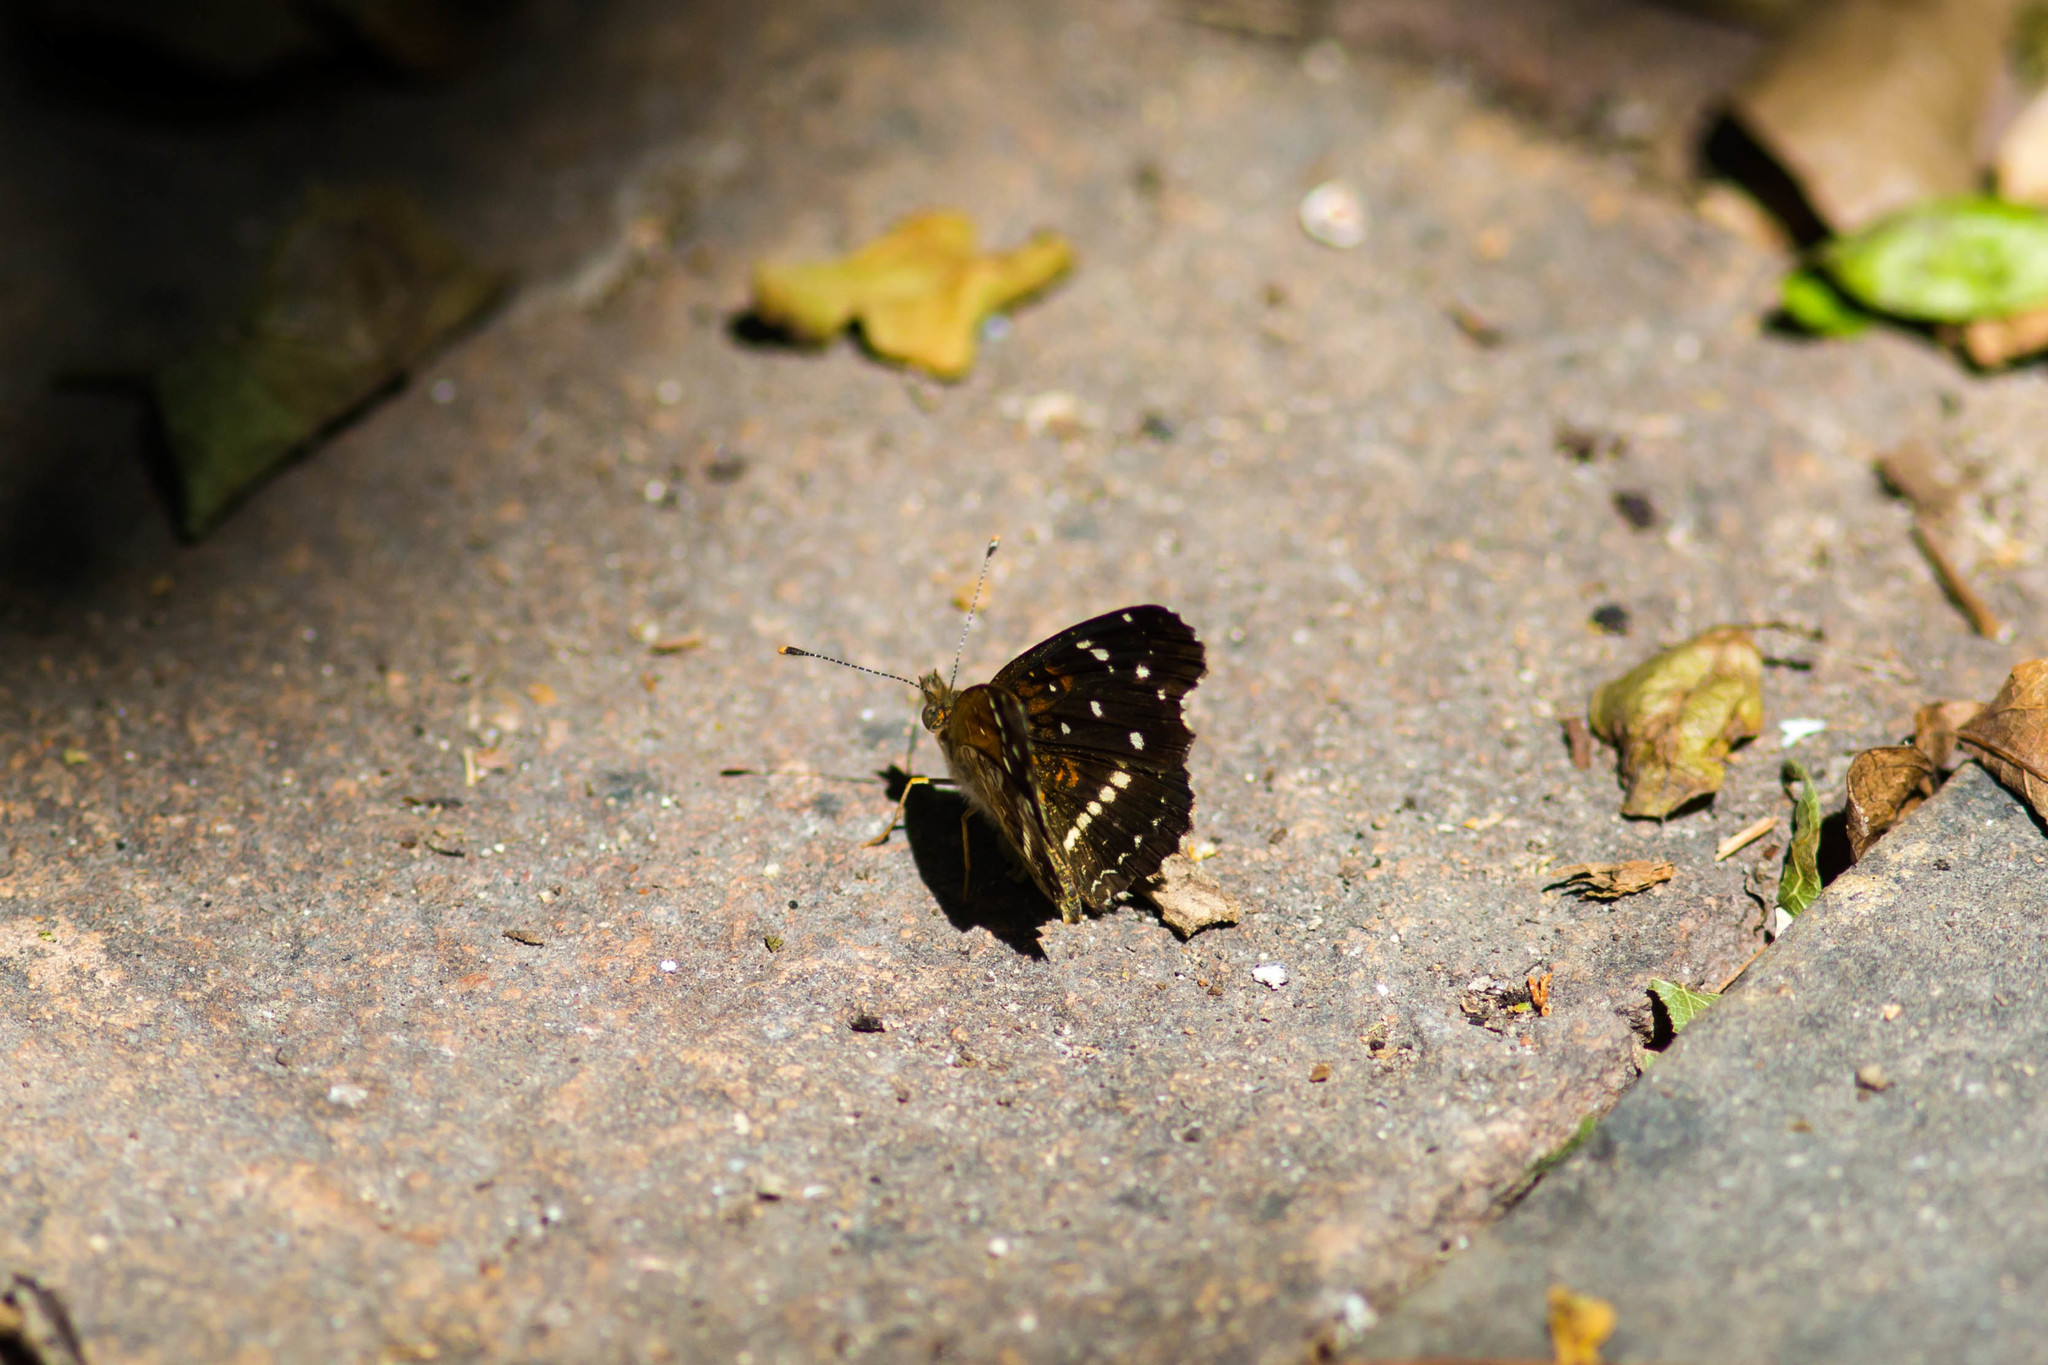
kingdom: Animalia
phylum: Arthropoda
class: Insecta
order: Lepidoptera
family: Nymphalidae
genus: Anthanassa
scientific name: Anthanassa texana
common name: Texan crescent
